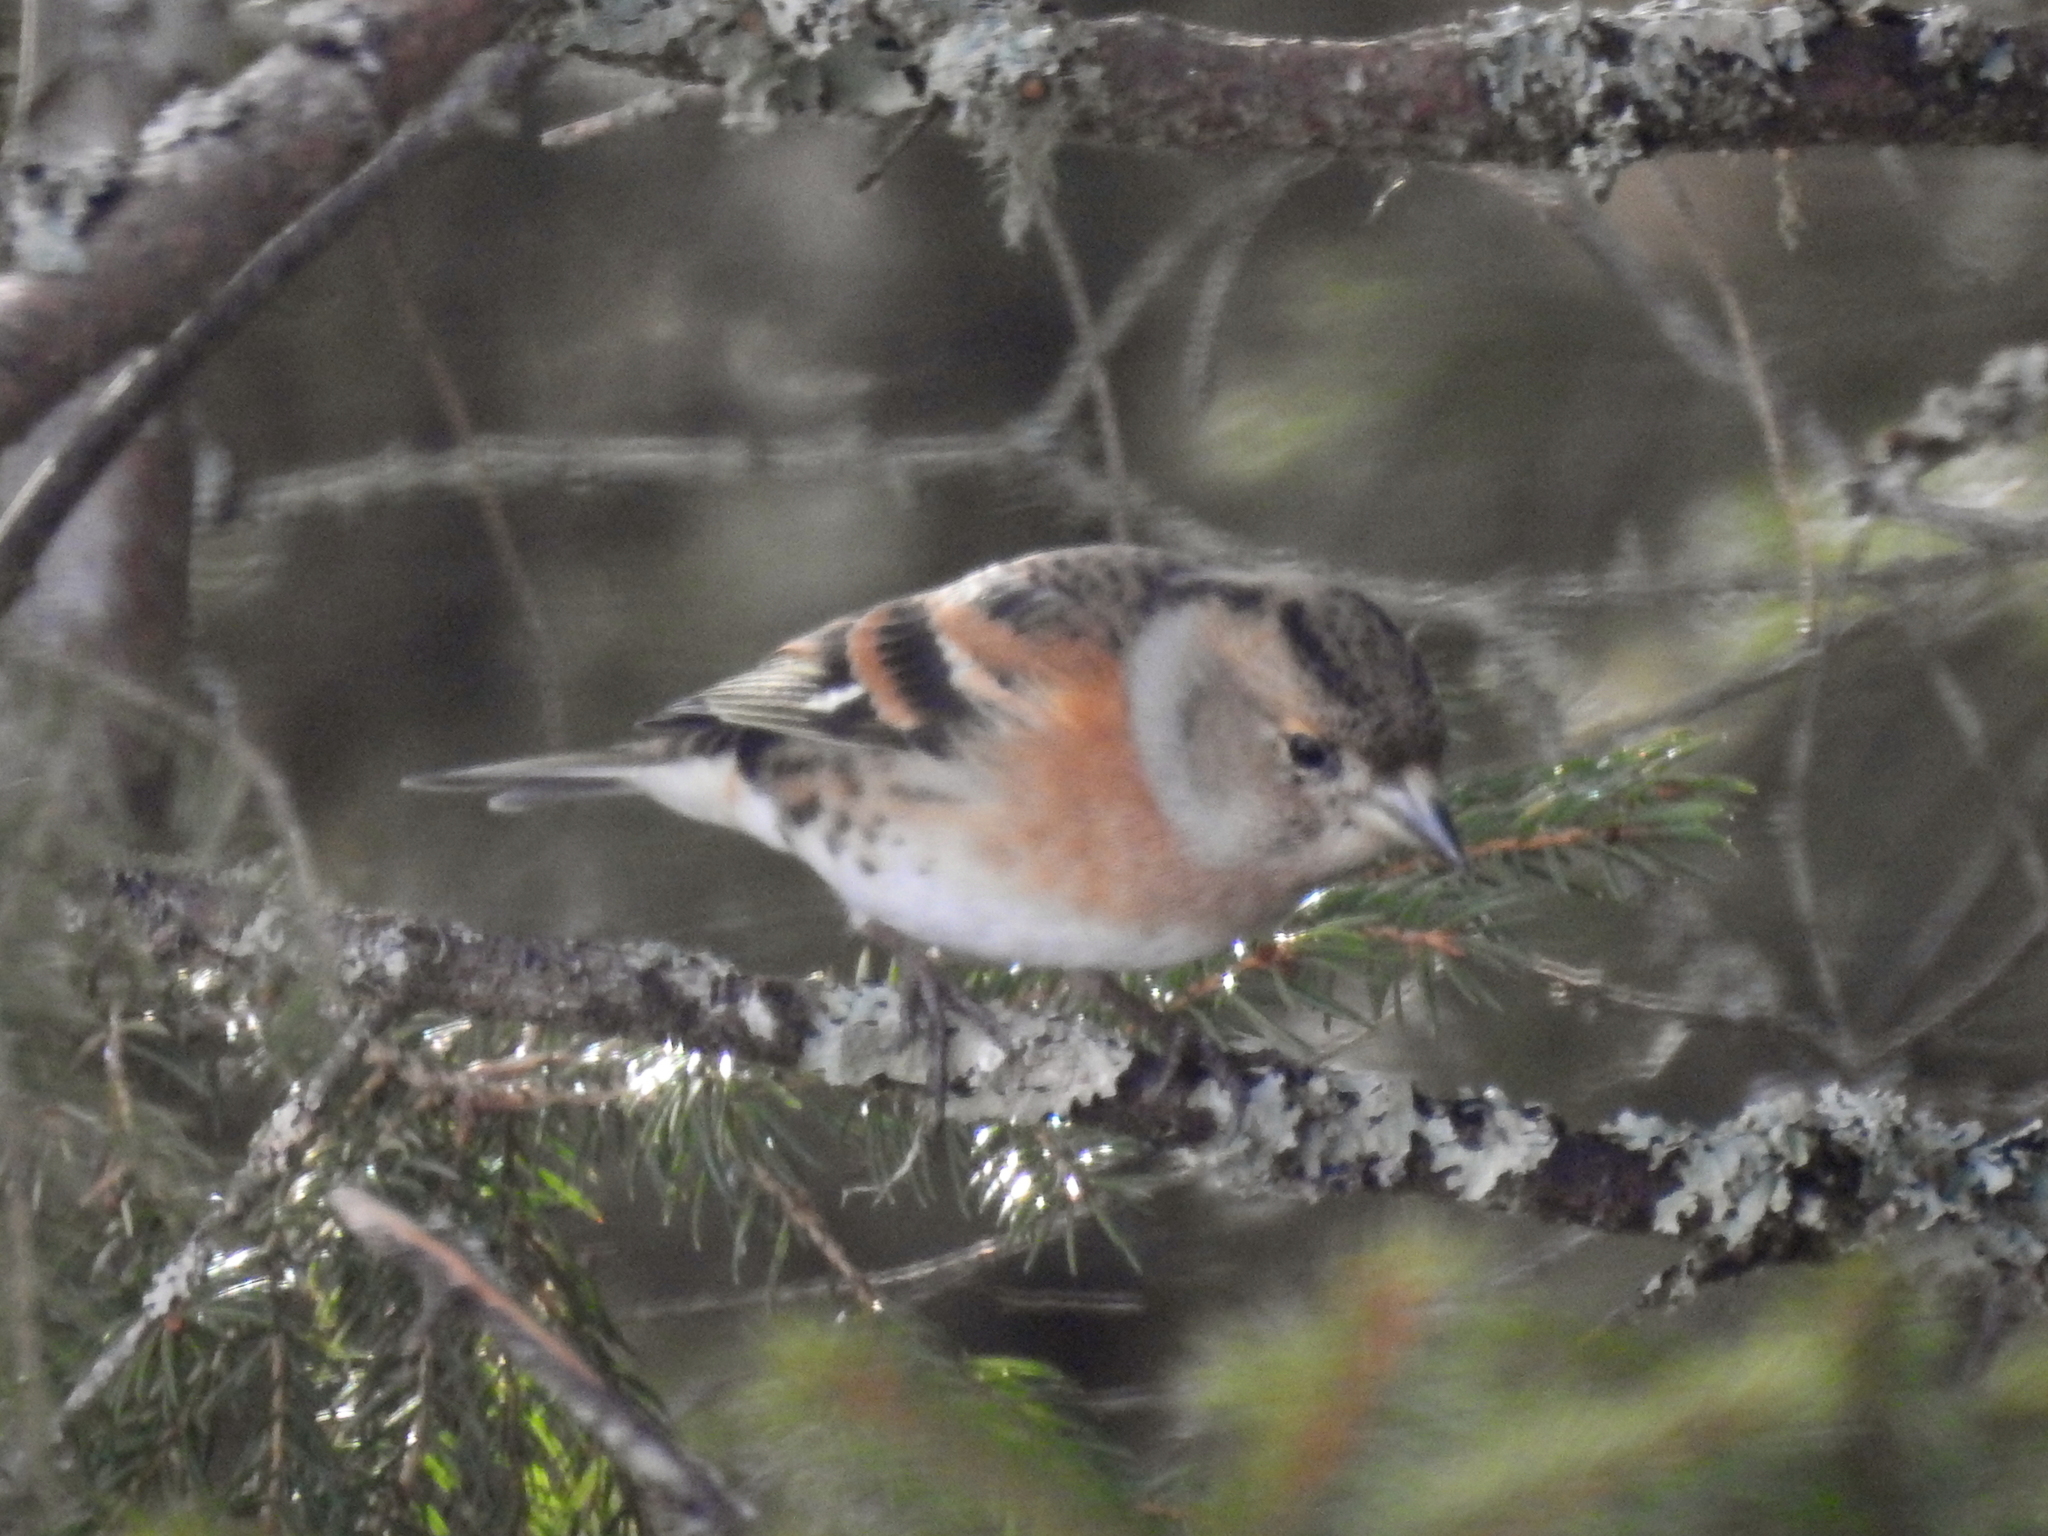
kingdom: Animalia
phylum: Chordata
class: Aves
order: Passeriformes
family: Fringillidae
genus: Fringilla
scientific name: Fringilla montifringilla
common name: Brambling
